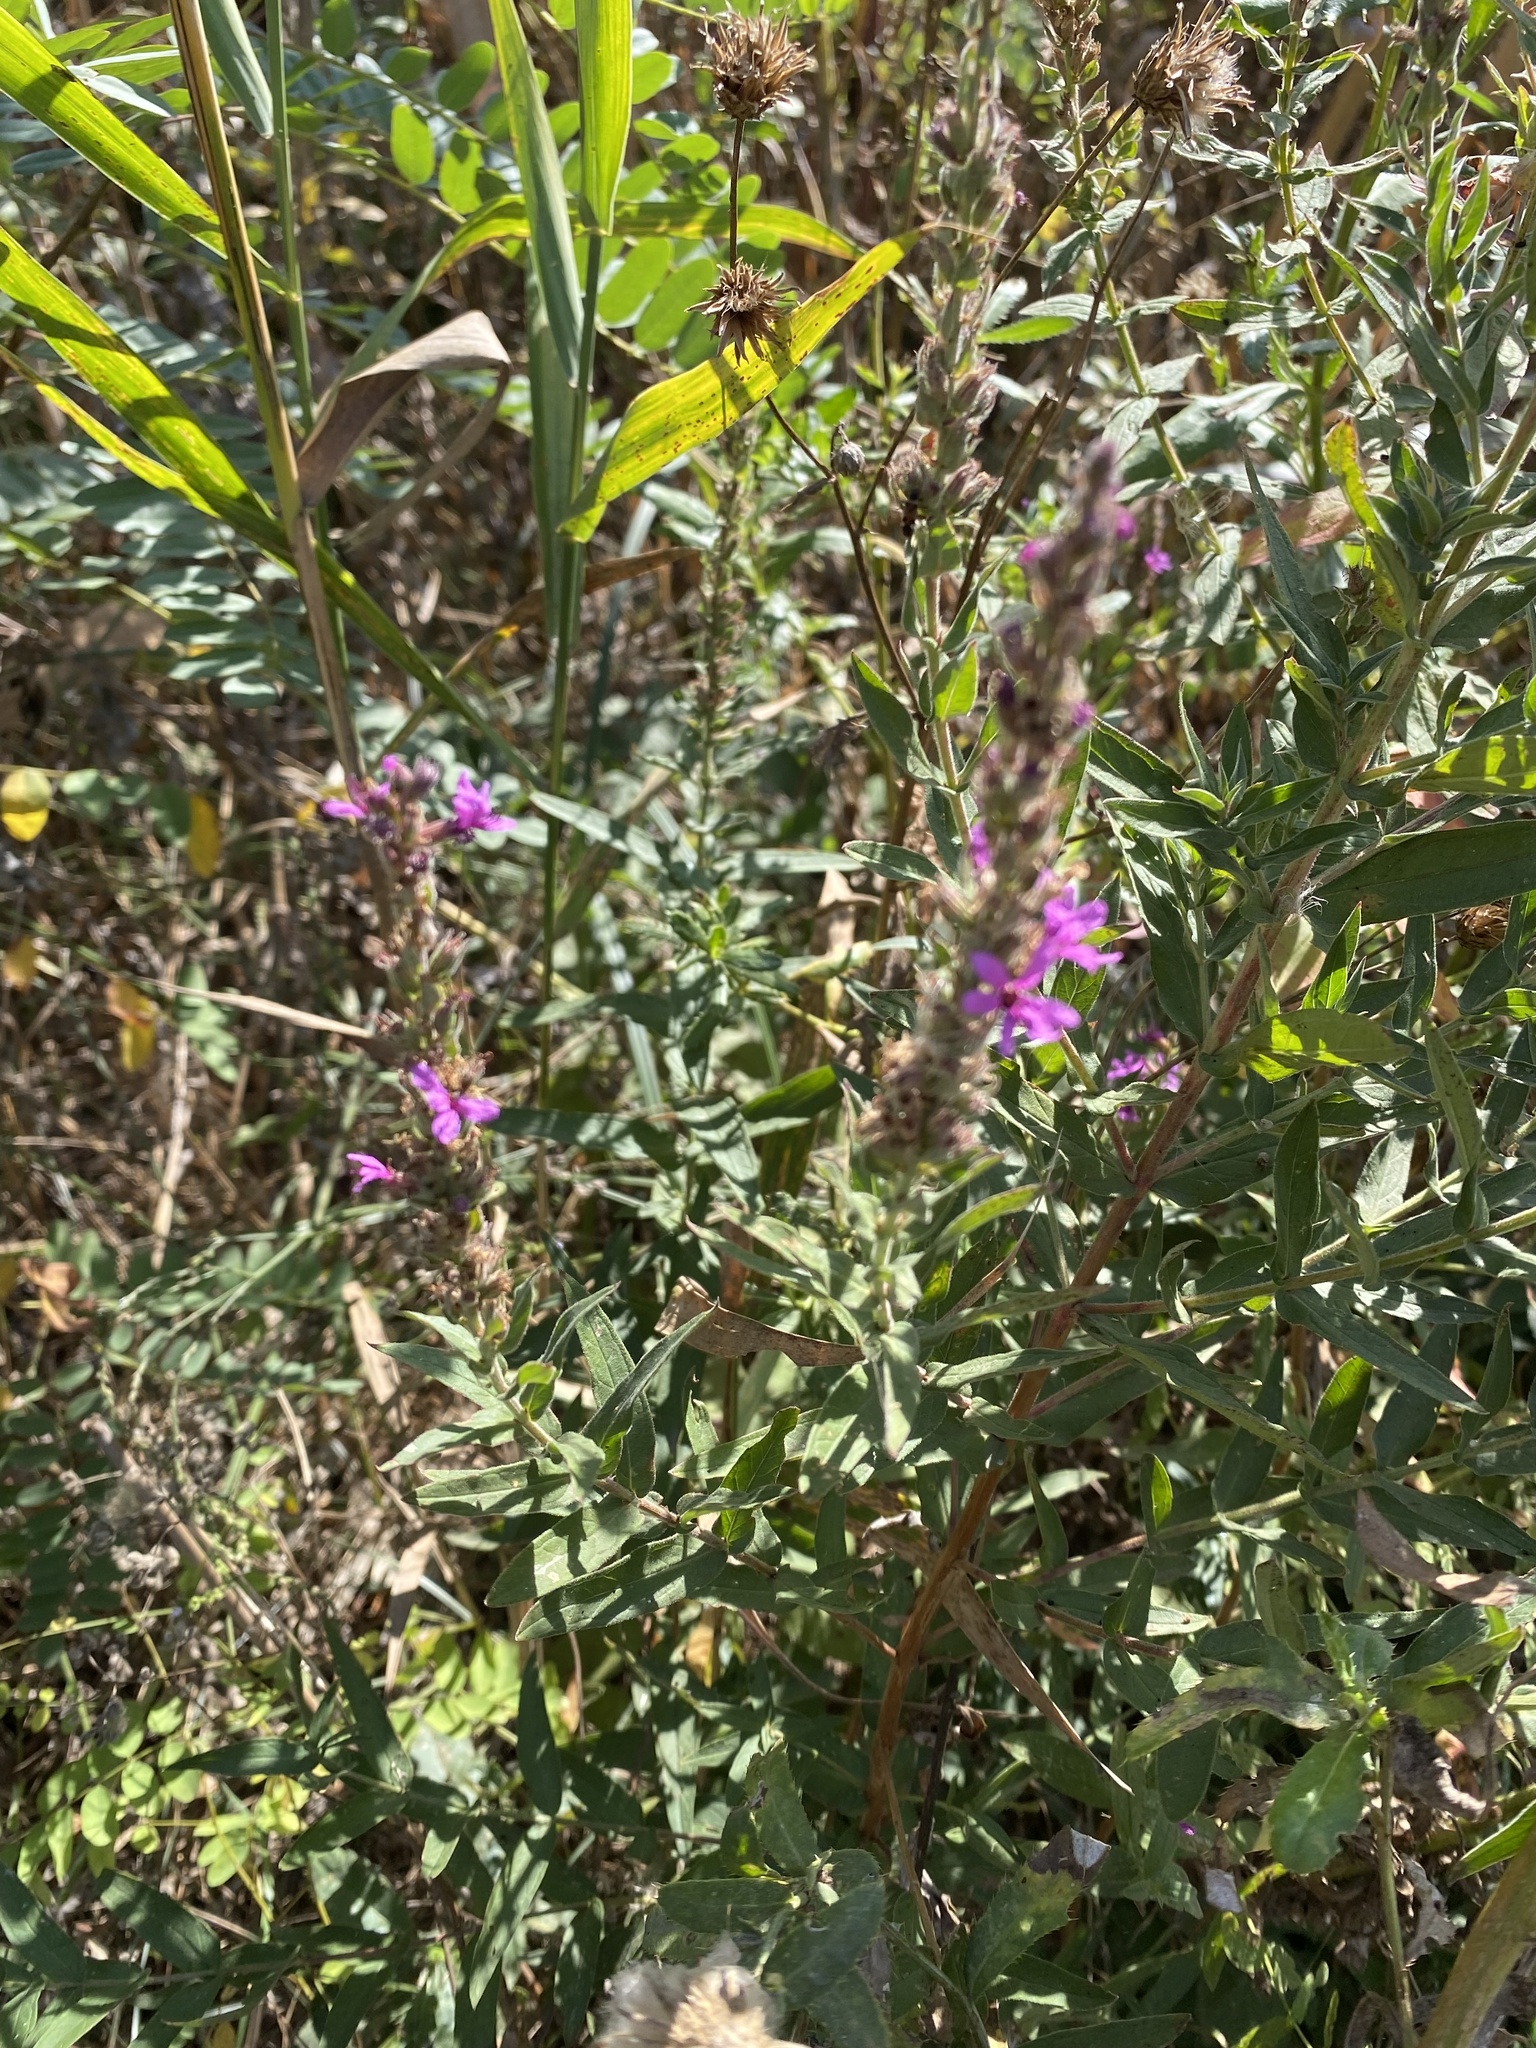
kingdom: Plantae
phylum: Tracheophyta
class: Magnoliopsida
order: Myrtales
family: Lythraceae
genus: Lythrum
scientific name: Lythrum salicaria
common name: Purple loosestrife
